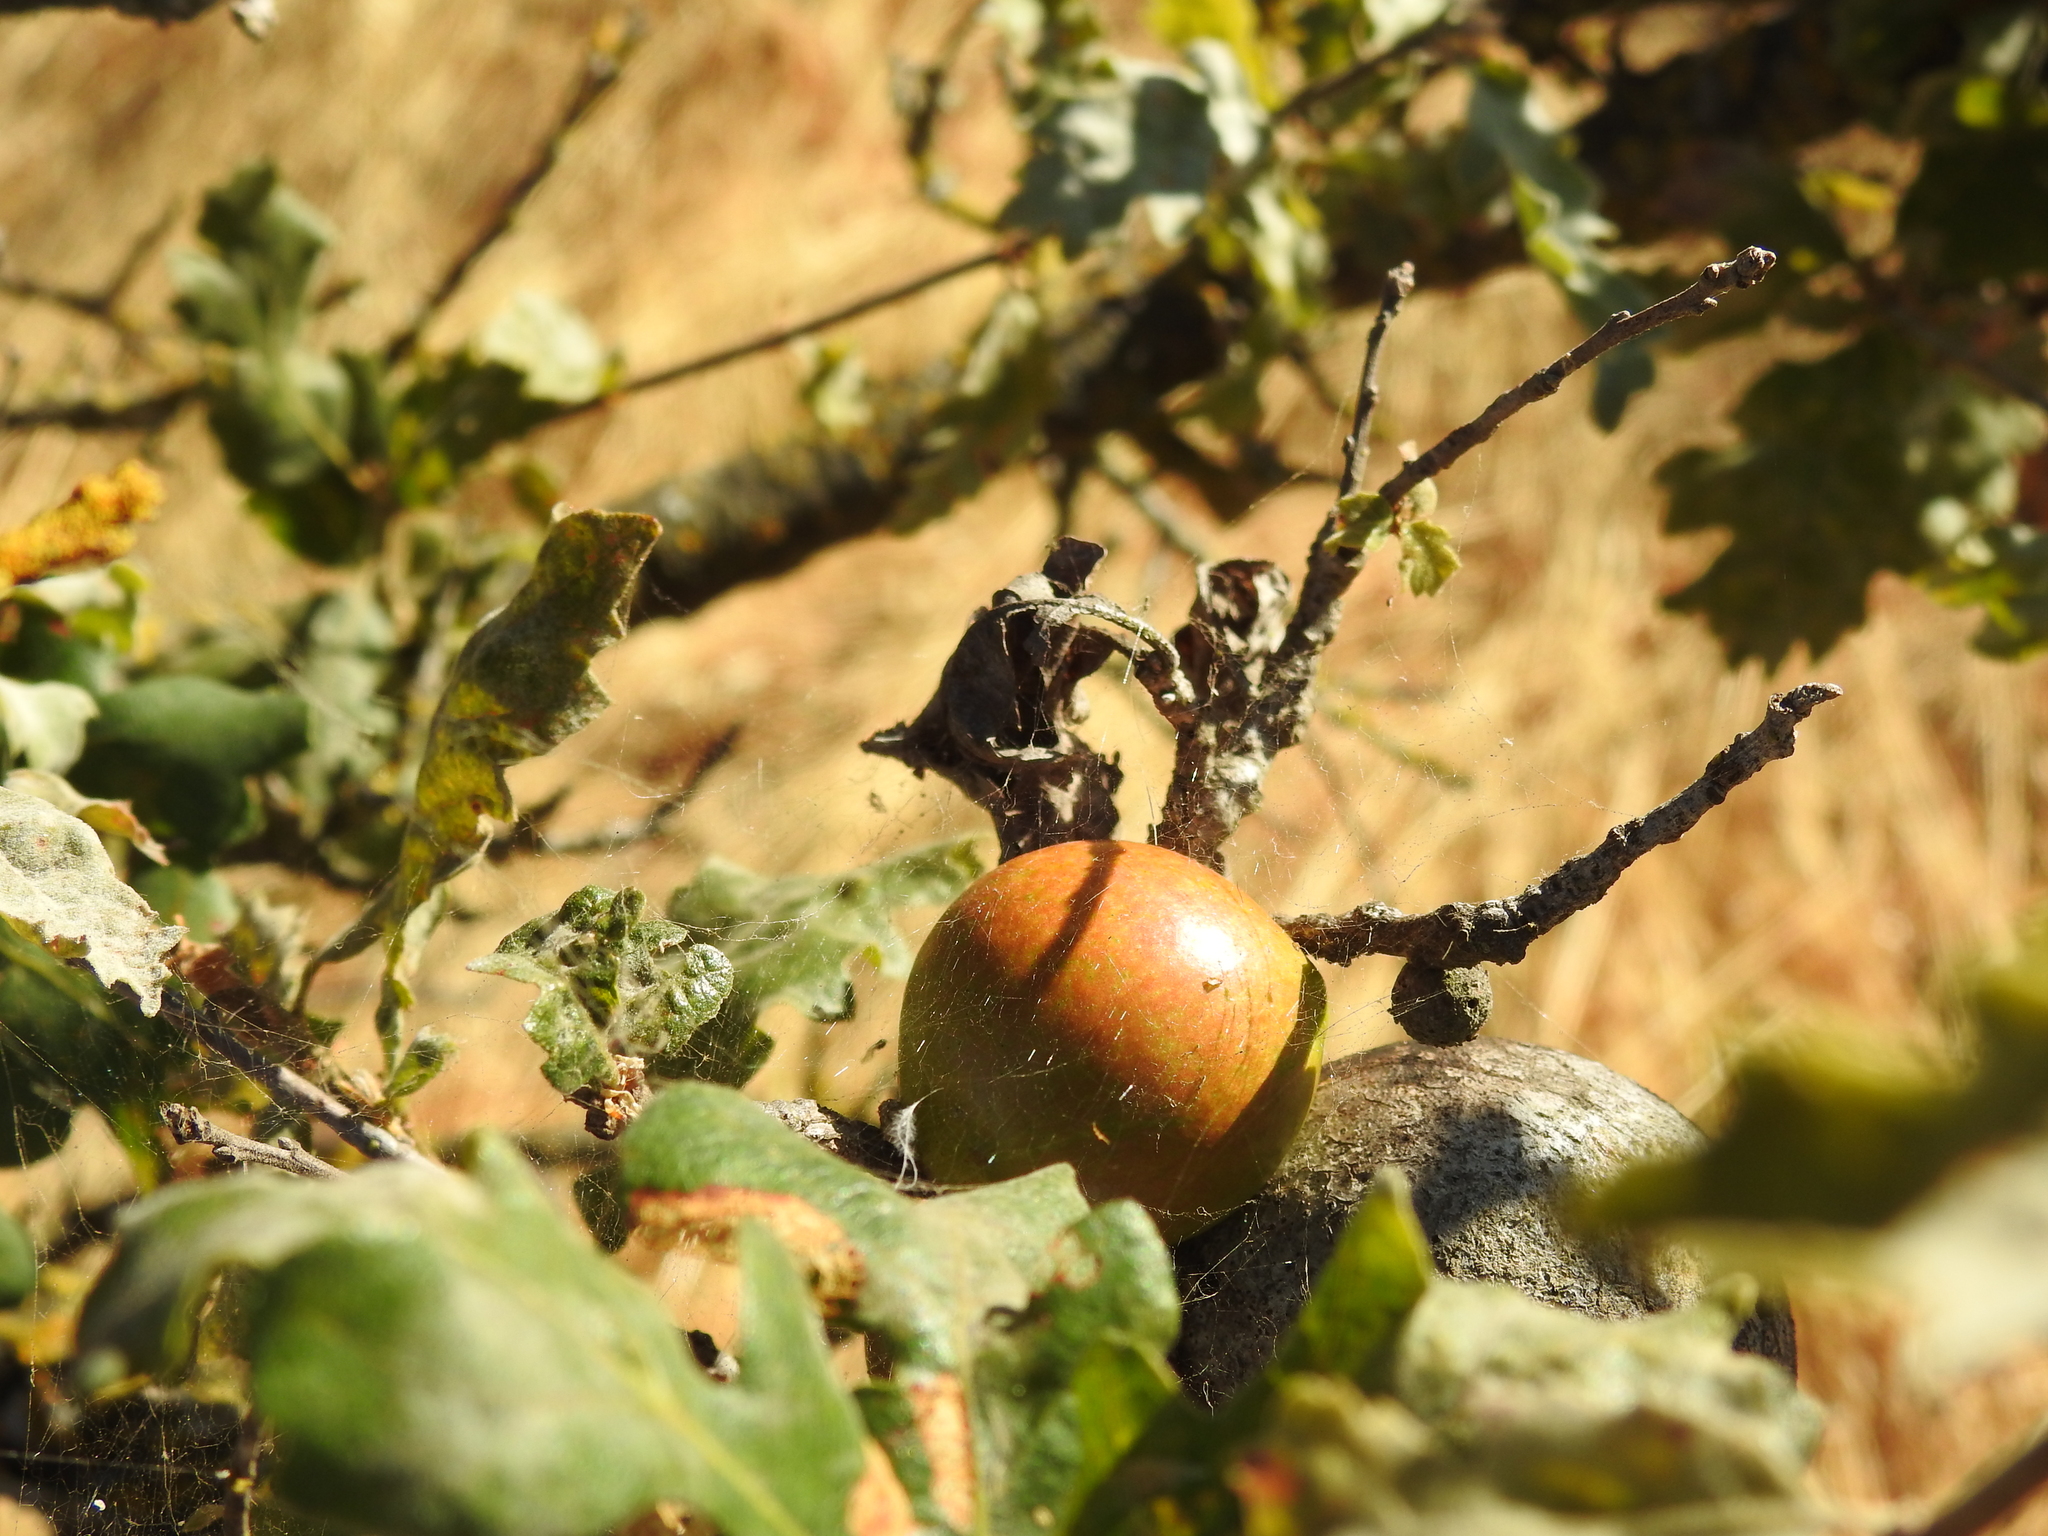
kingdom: Animalia
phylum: Arthropoda
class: Insecta
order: Hymenoptera
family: Cynipidae
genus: Andricus
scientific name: Andricus quercuscalifornicus
